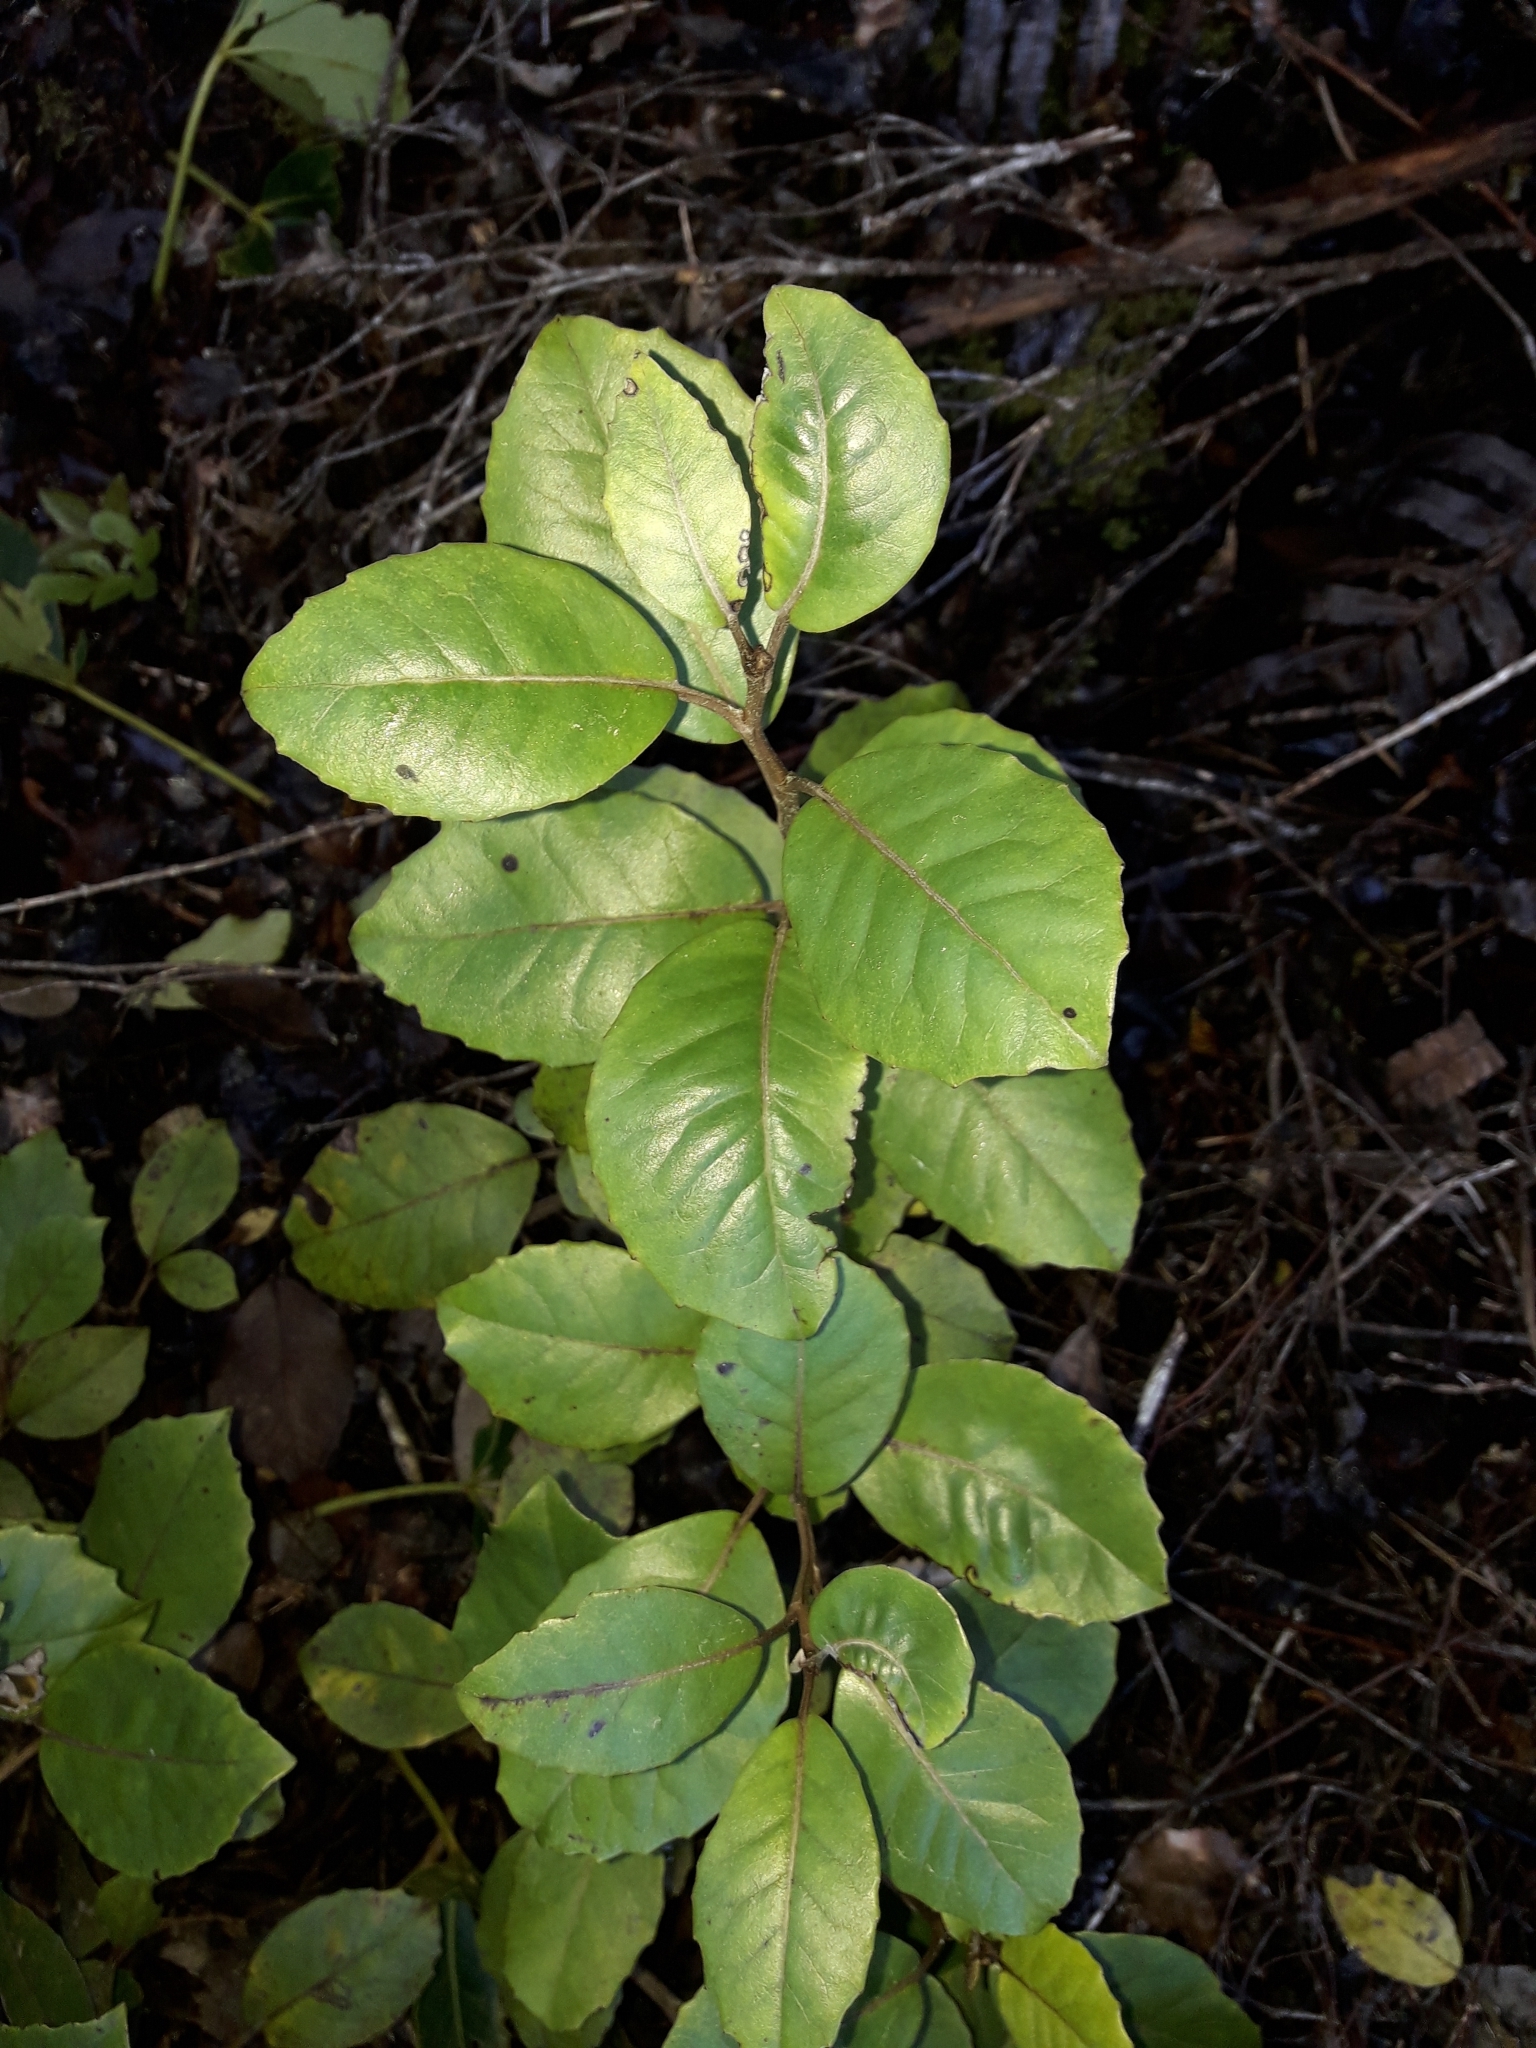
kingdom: Plantae
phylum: Tracheophyta
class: Magnoliopsida
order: Asterales
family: Asteraceae
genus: Olearia
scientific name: Olearia arborescens
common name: Glossy tree daisy
